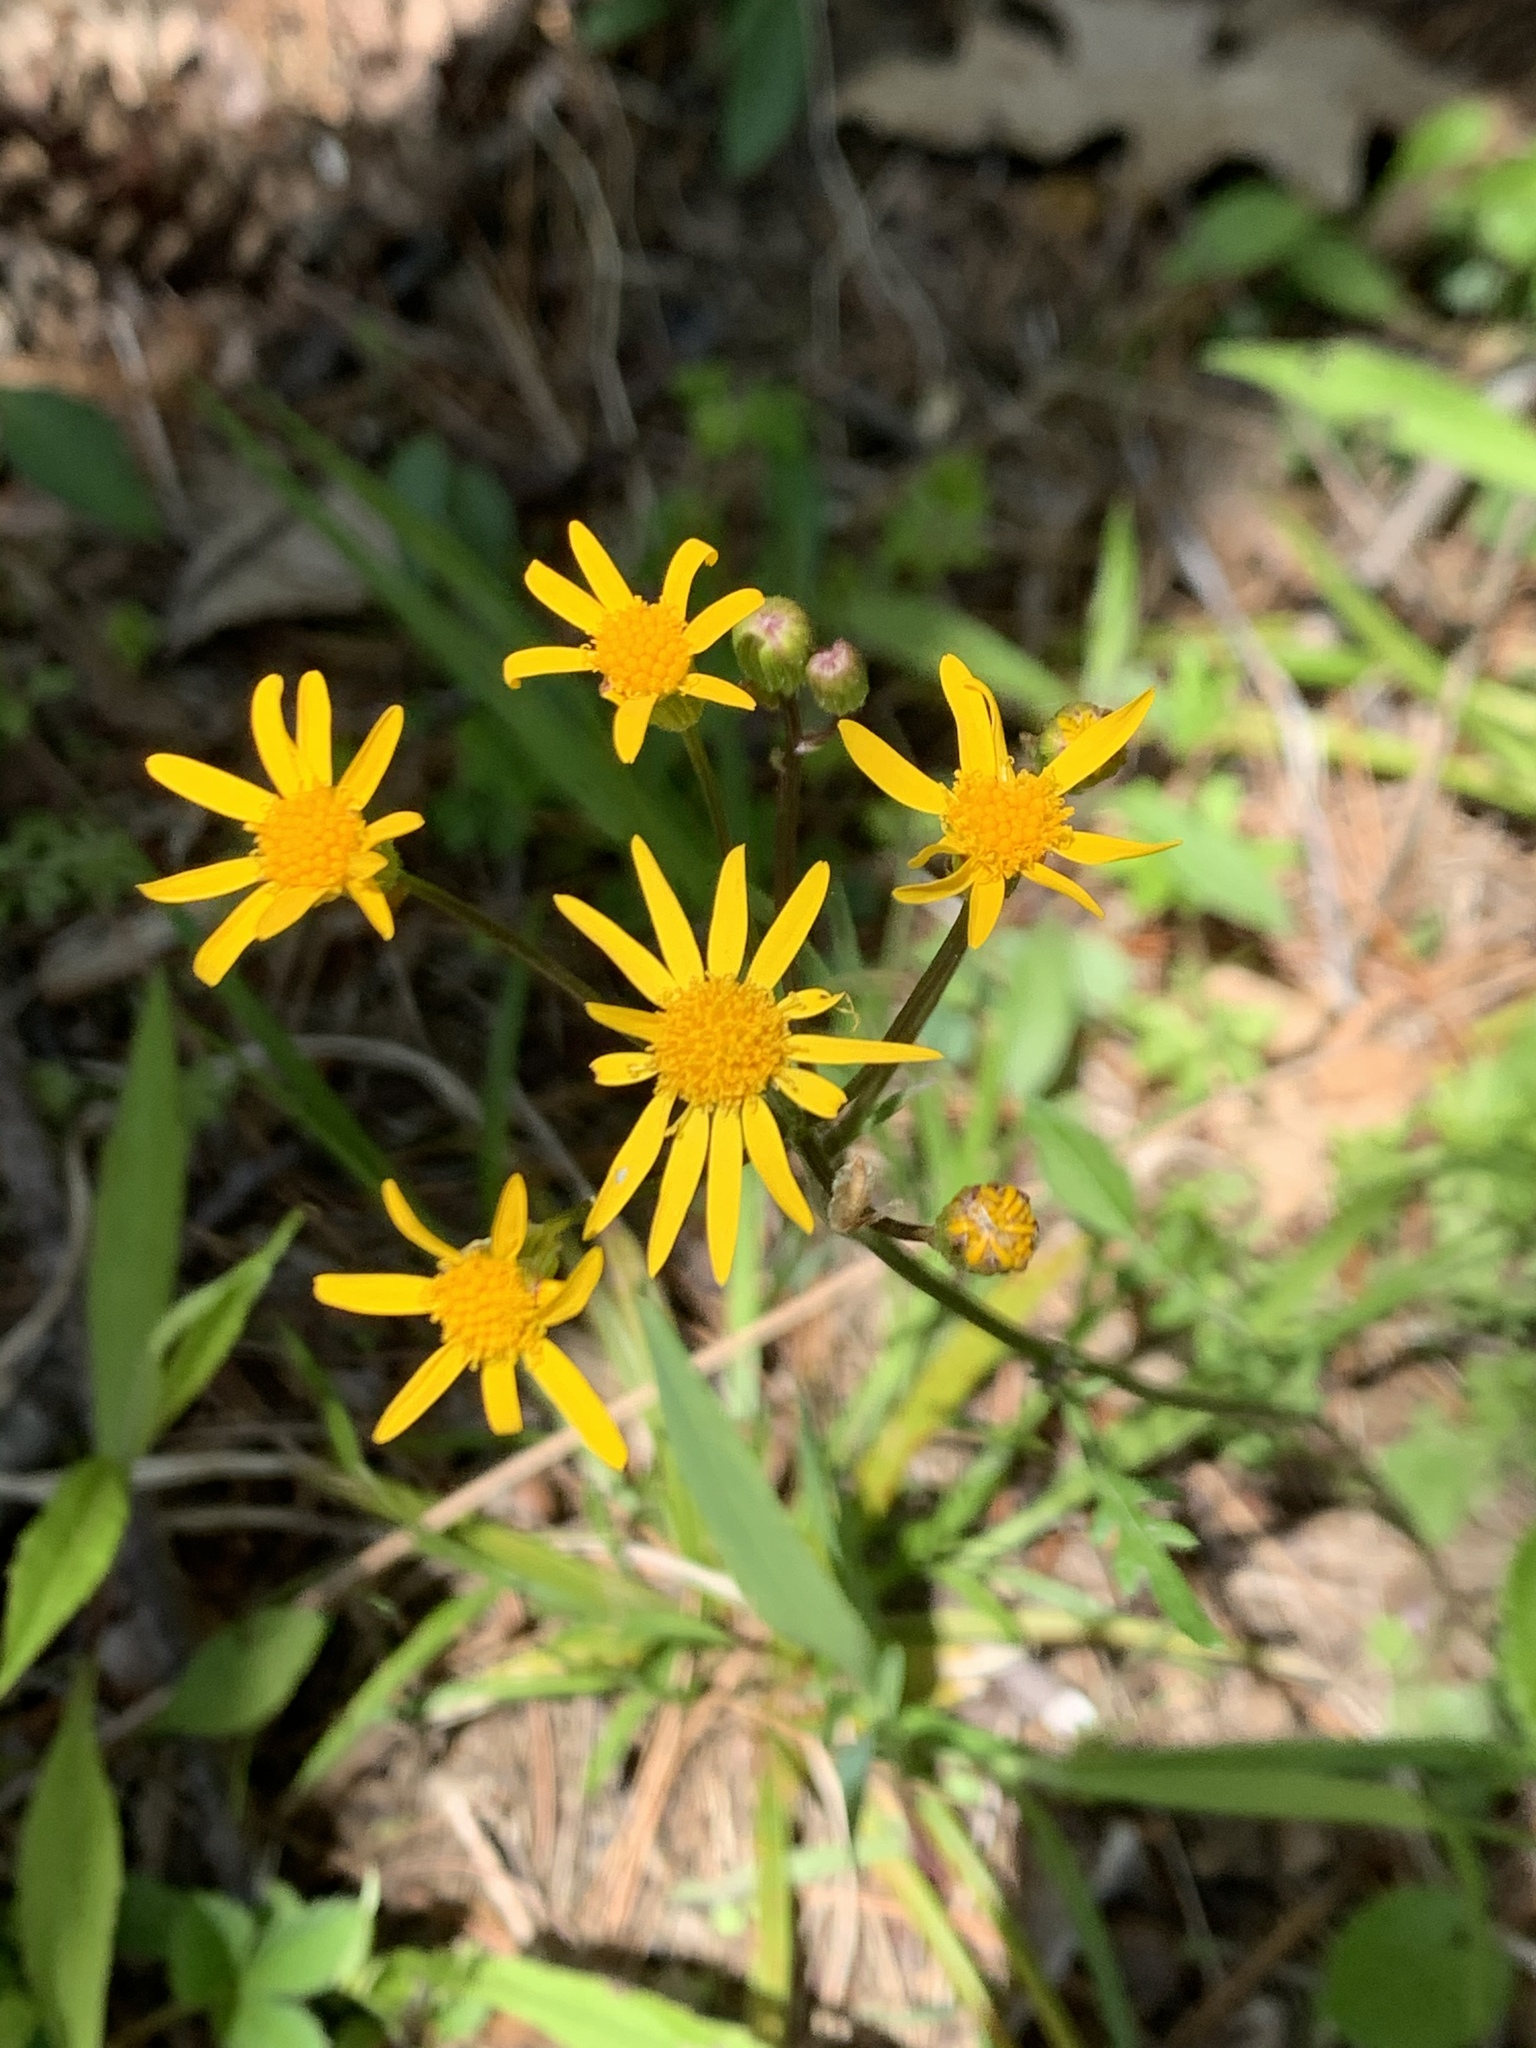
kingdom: Plantae
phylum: Tracheophyta
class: Magnoliopsida
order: Asterales
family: Asteraceae
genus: Packera
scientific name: Packera aurea
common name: Golden groundsel
